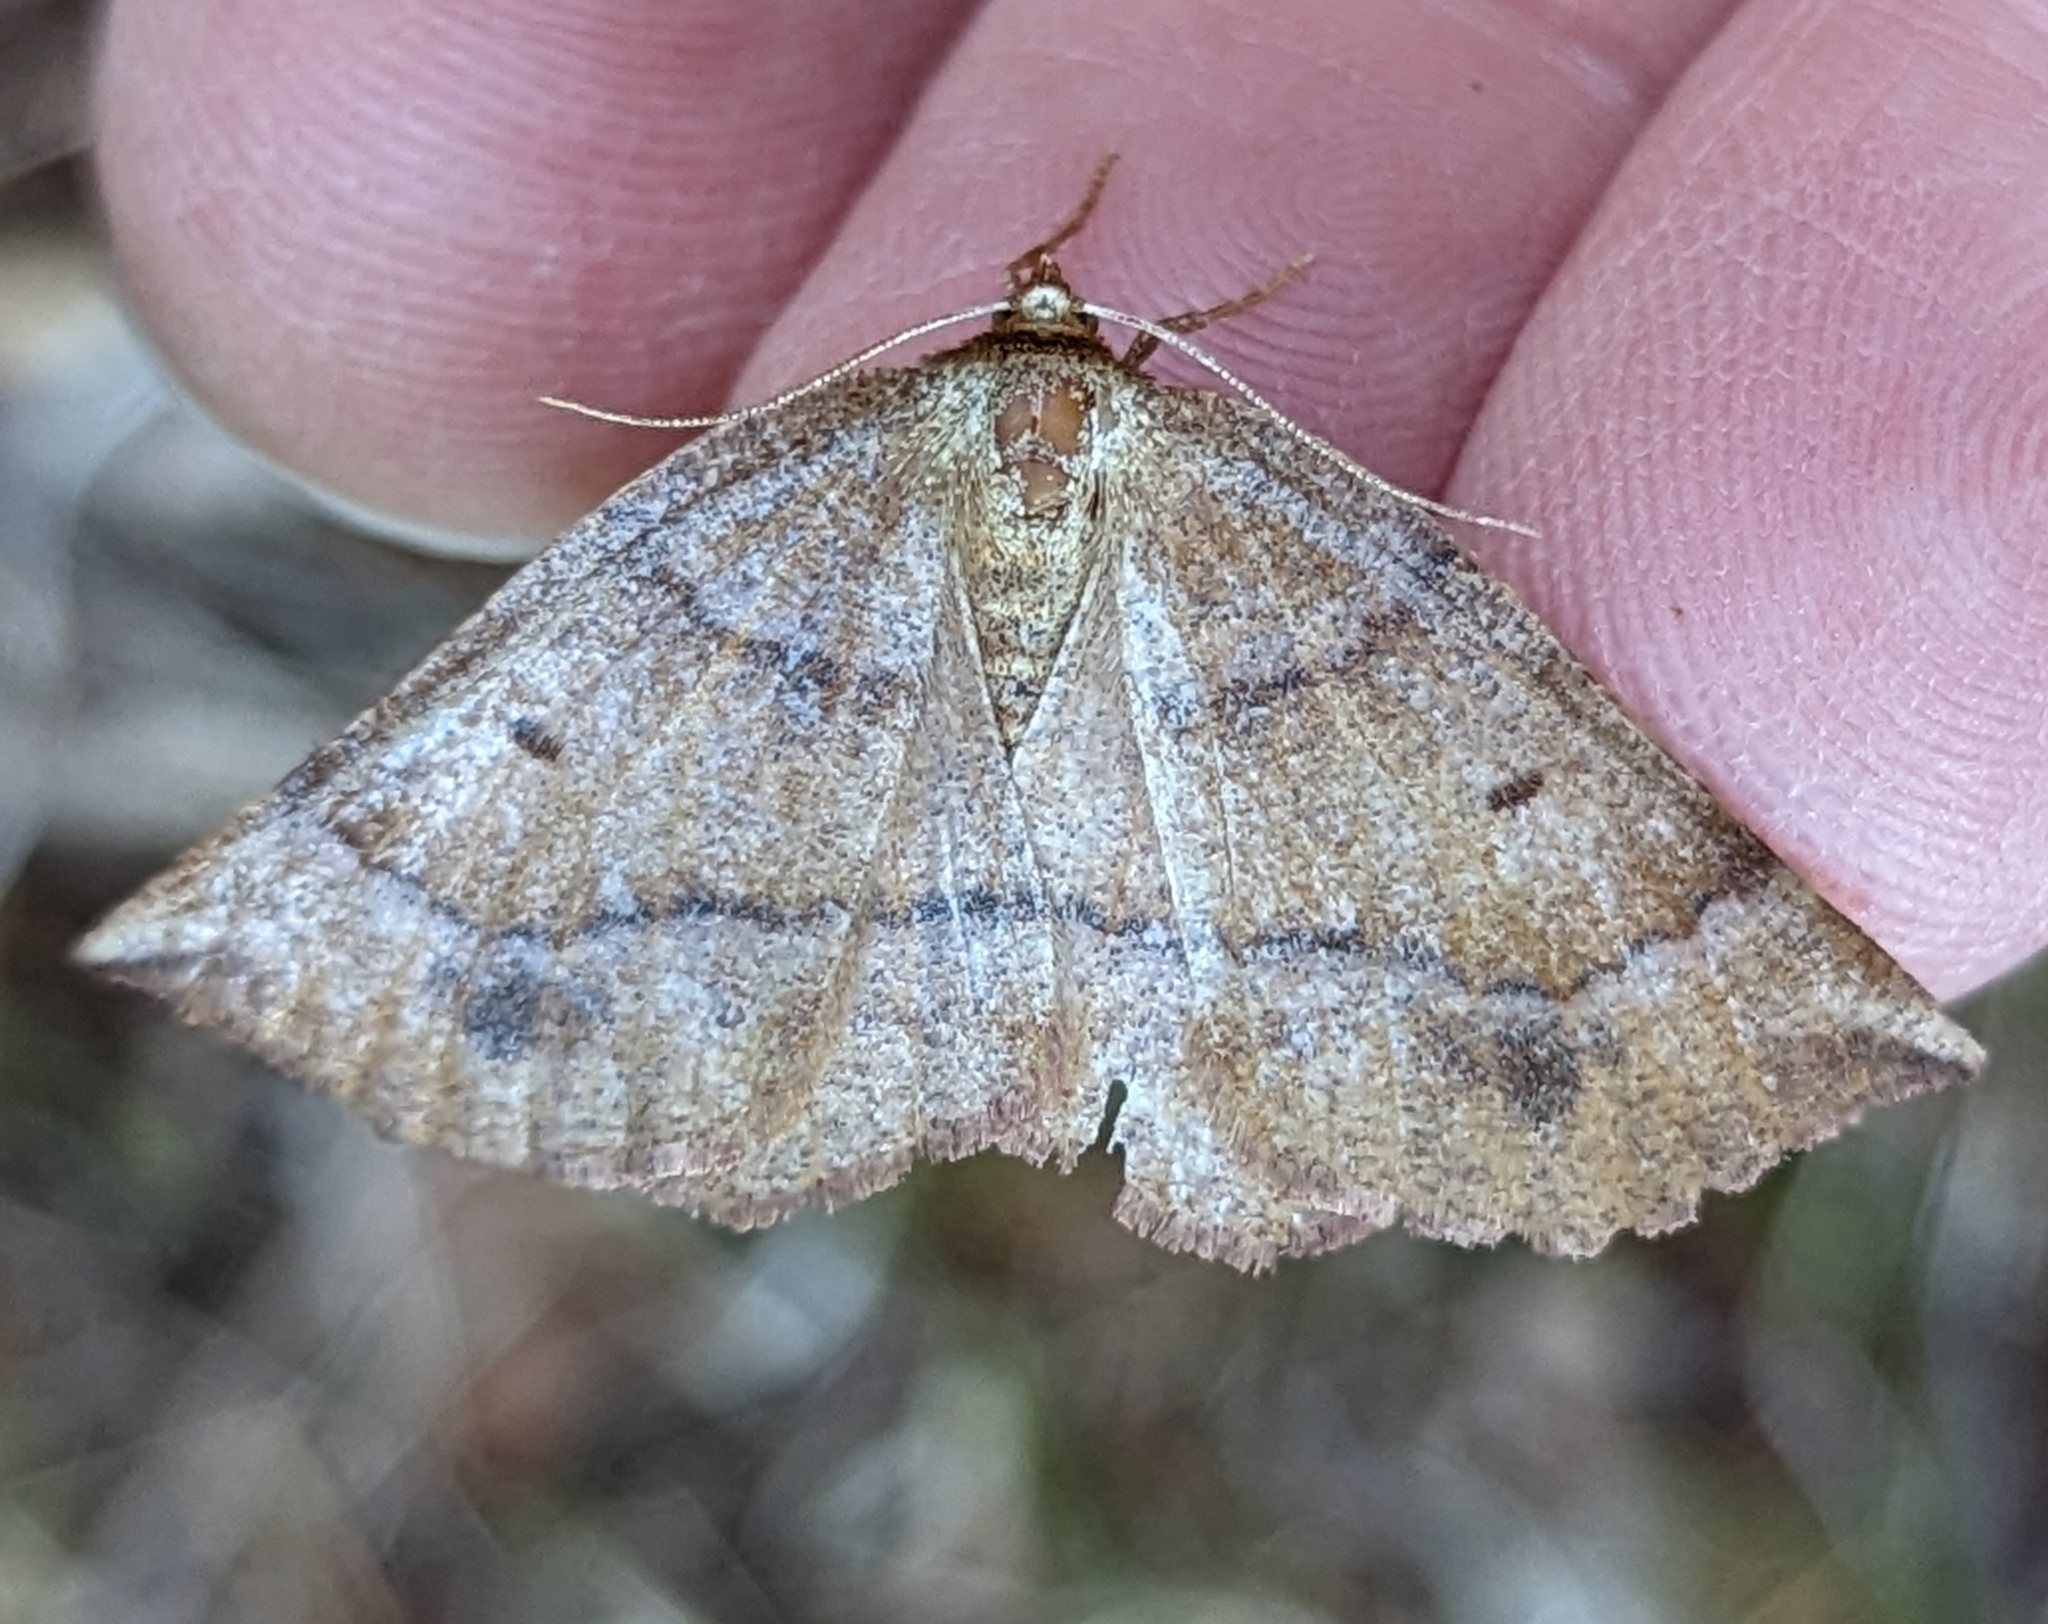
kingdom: Animalia
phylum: Arthropoda
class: Insecta
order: Lepidoptera
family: Geometridae
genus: Metarranthis
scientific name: Metarranthis duaria
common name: Ruddy metarranthis moth
